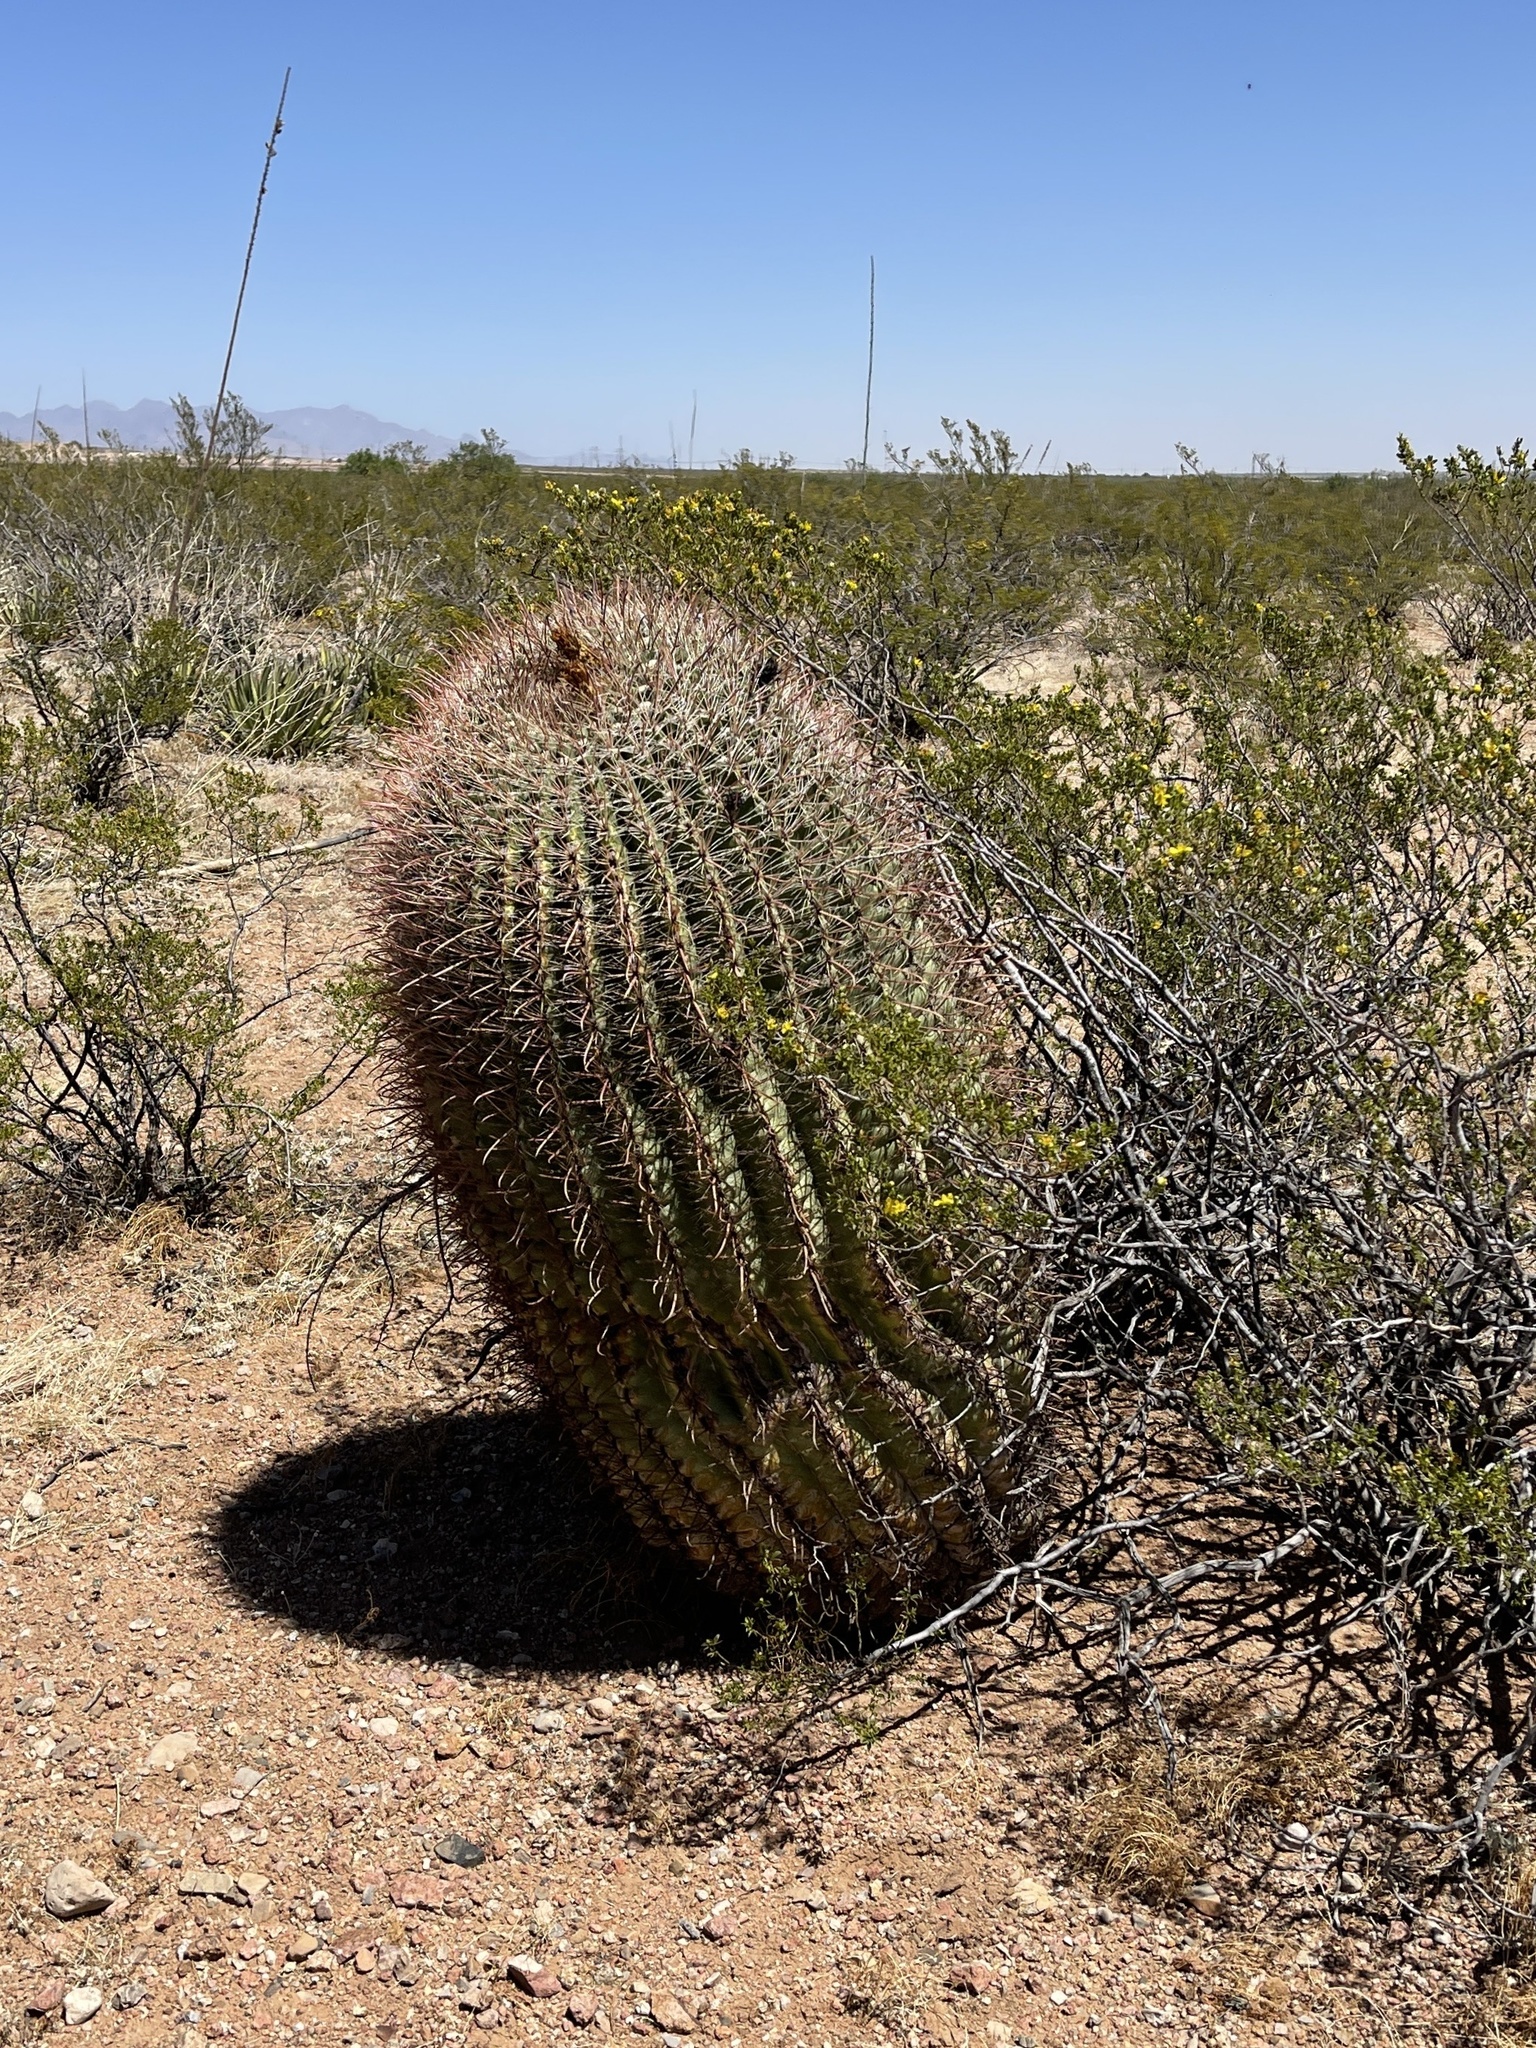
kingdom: Plantae
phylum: Tracheophyta
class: Magnoliopsida
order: Caryophyllales
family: Cactaceae
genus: Ferocactus
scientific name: Ferocactus wislizeni
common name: Candy barrel cactus
